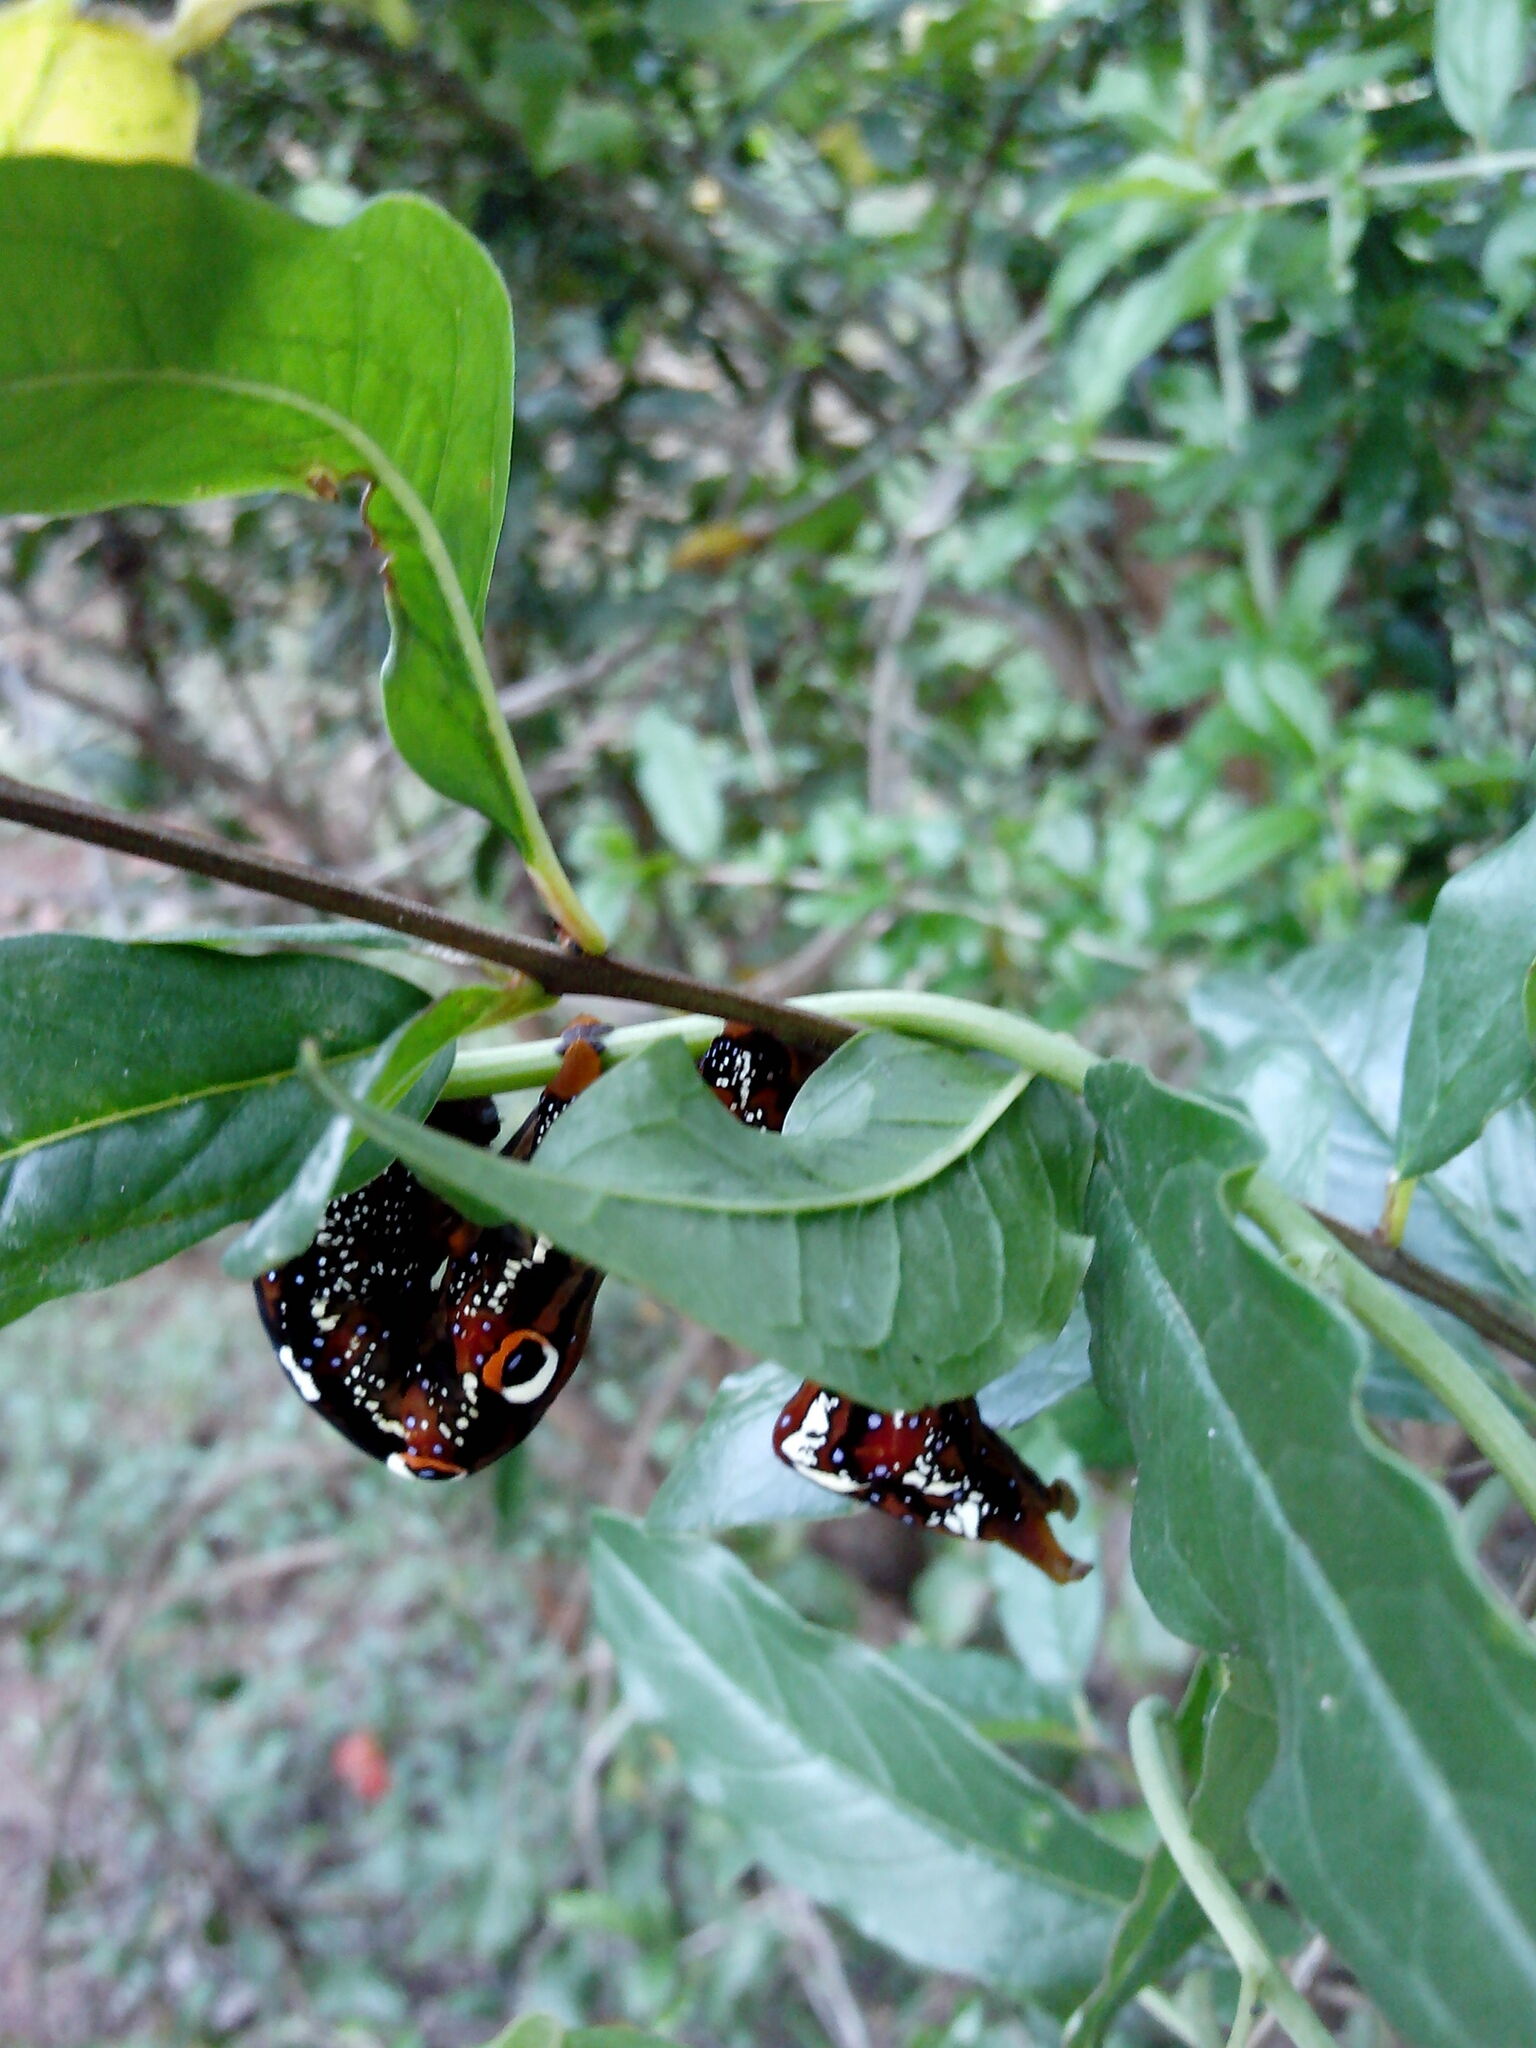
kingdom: Animalia
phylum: Arthropoda
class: Insecta
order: Lepidoptera
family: Erebidae
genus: Eudocima
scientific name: Eudocima phalonia
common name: Wasp
